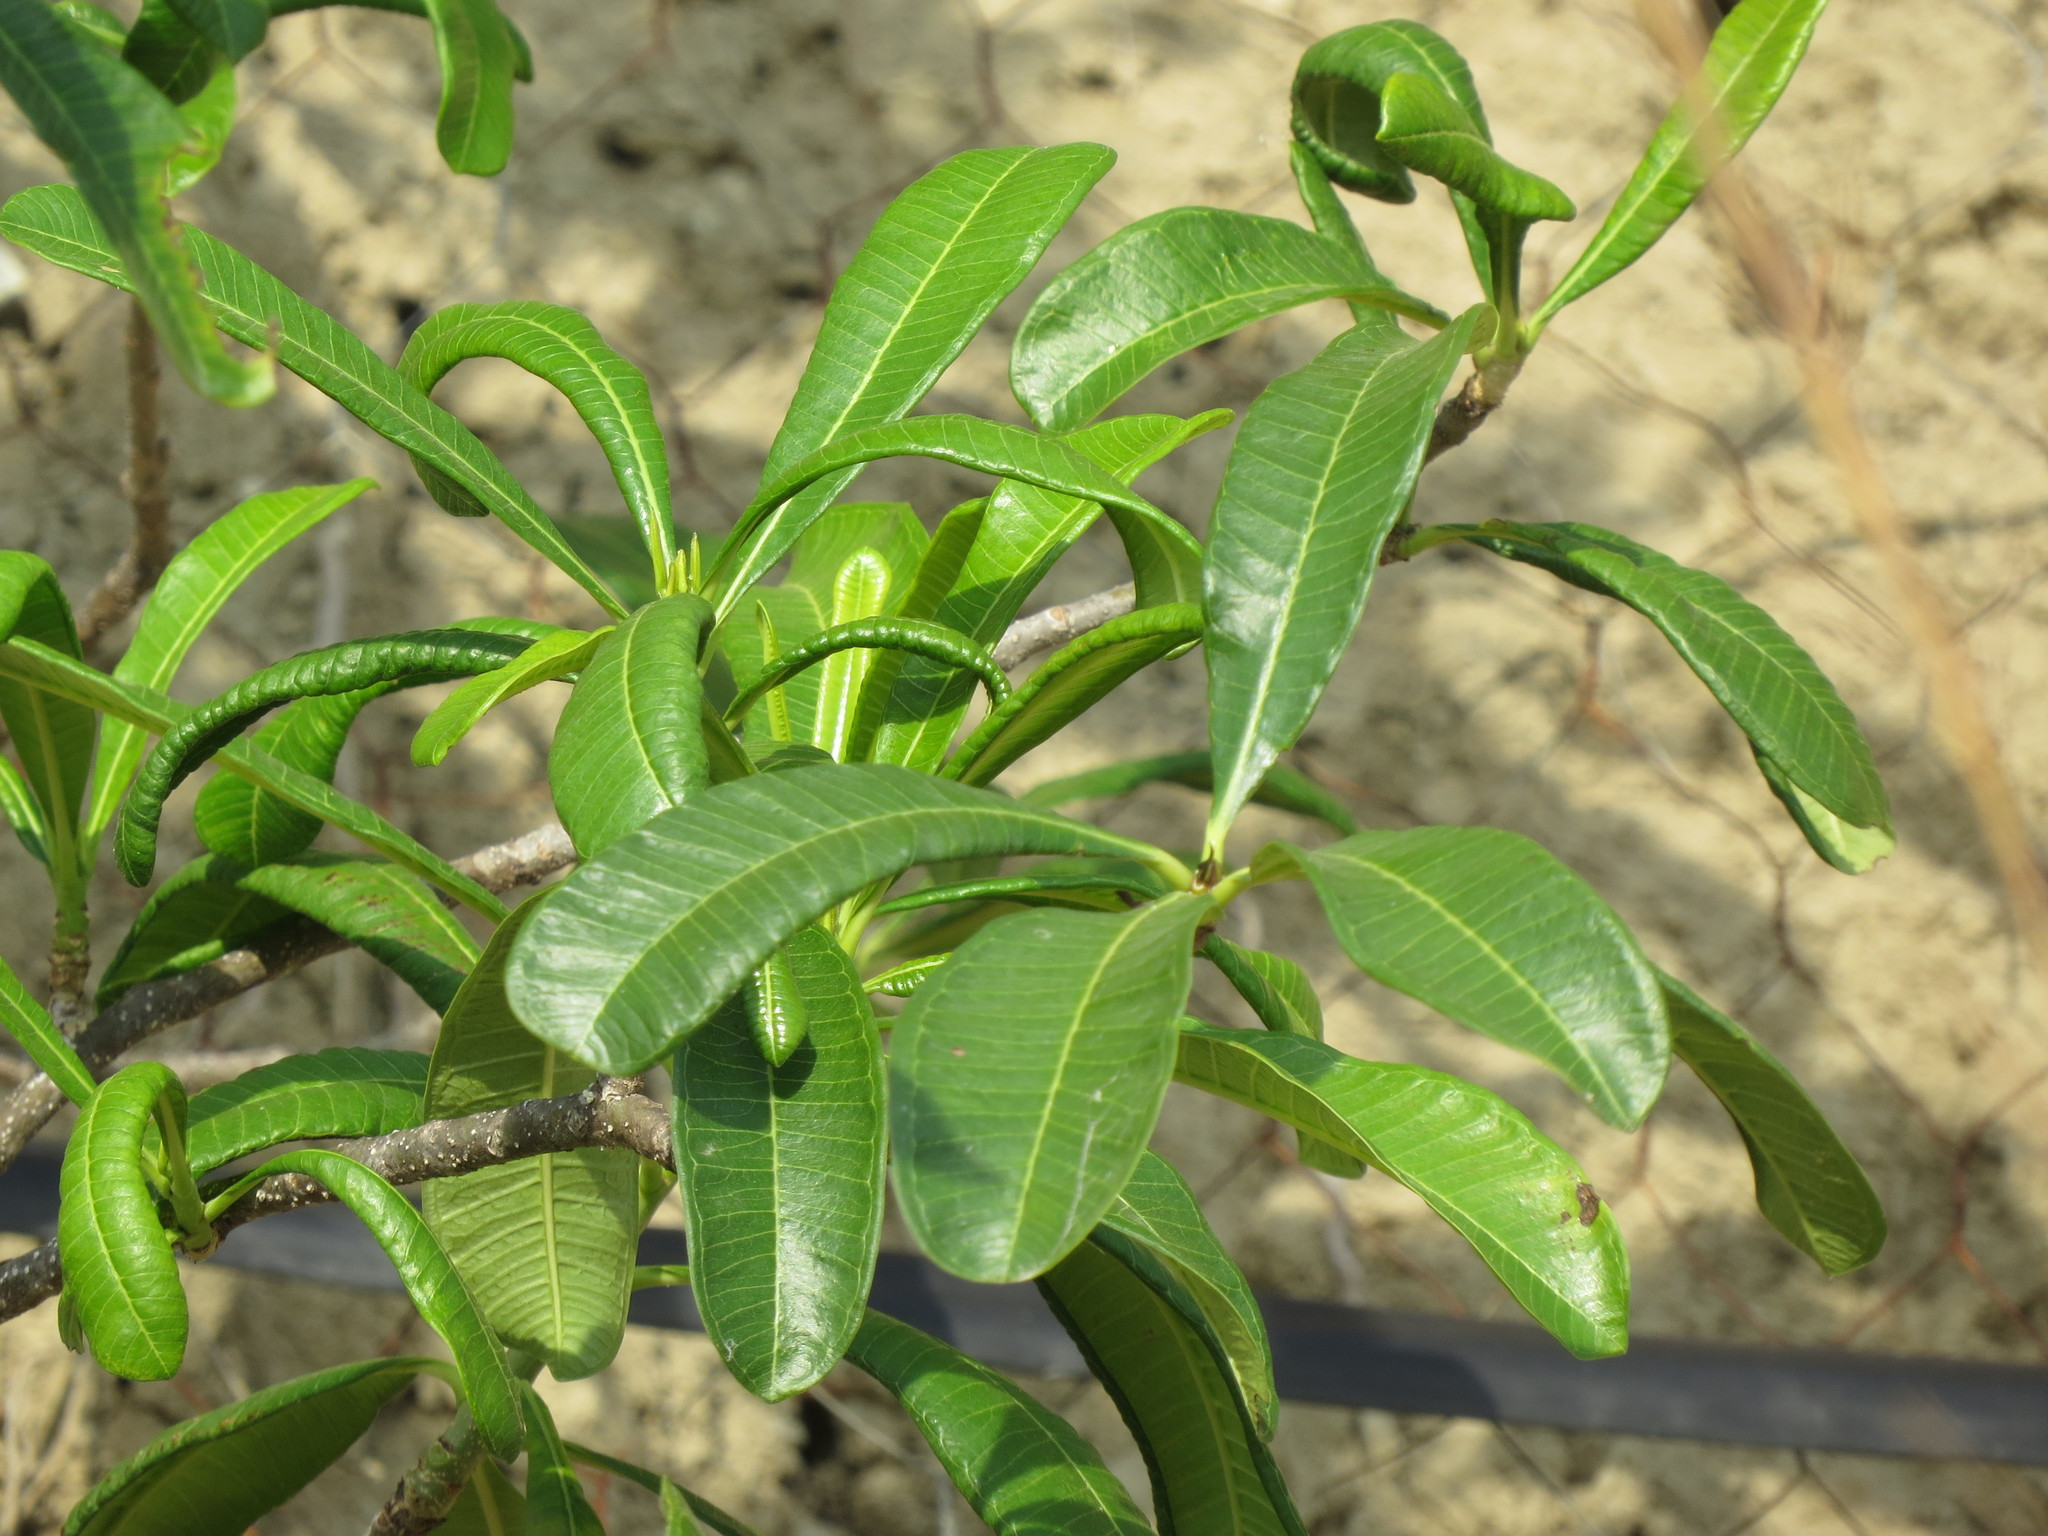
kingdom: Plantae
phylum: Tracheophyta
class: Magnoliopsida
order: Gentianales
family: Apocynaceae
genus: Cascabela
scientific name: Cascabela ovata
